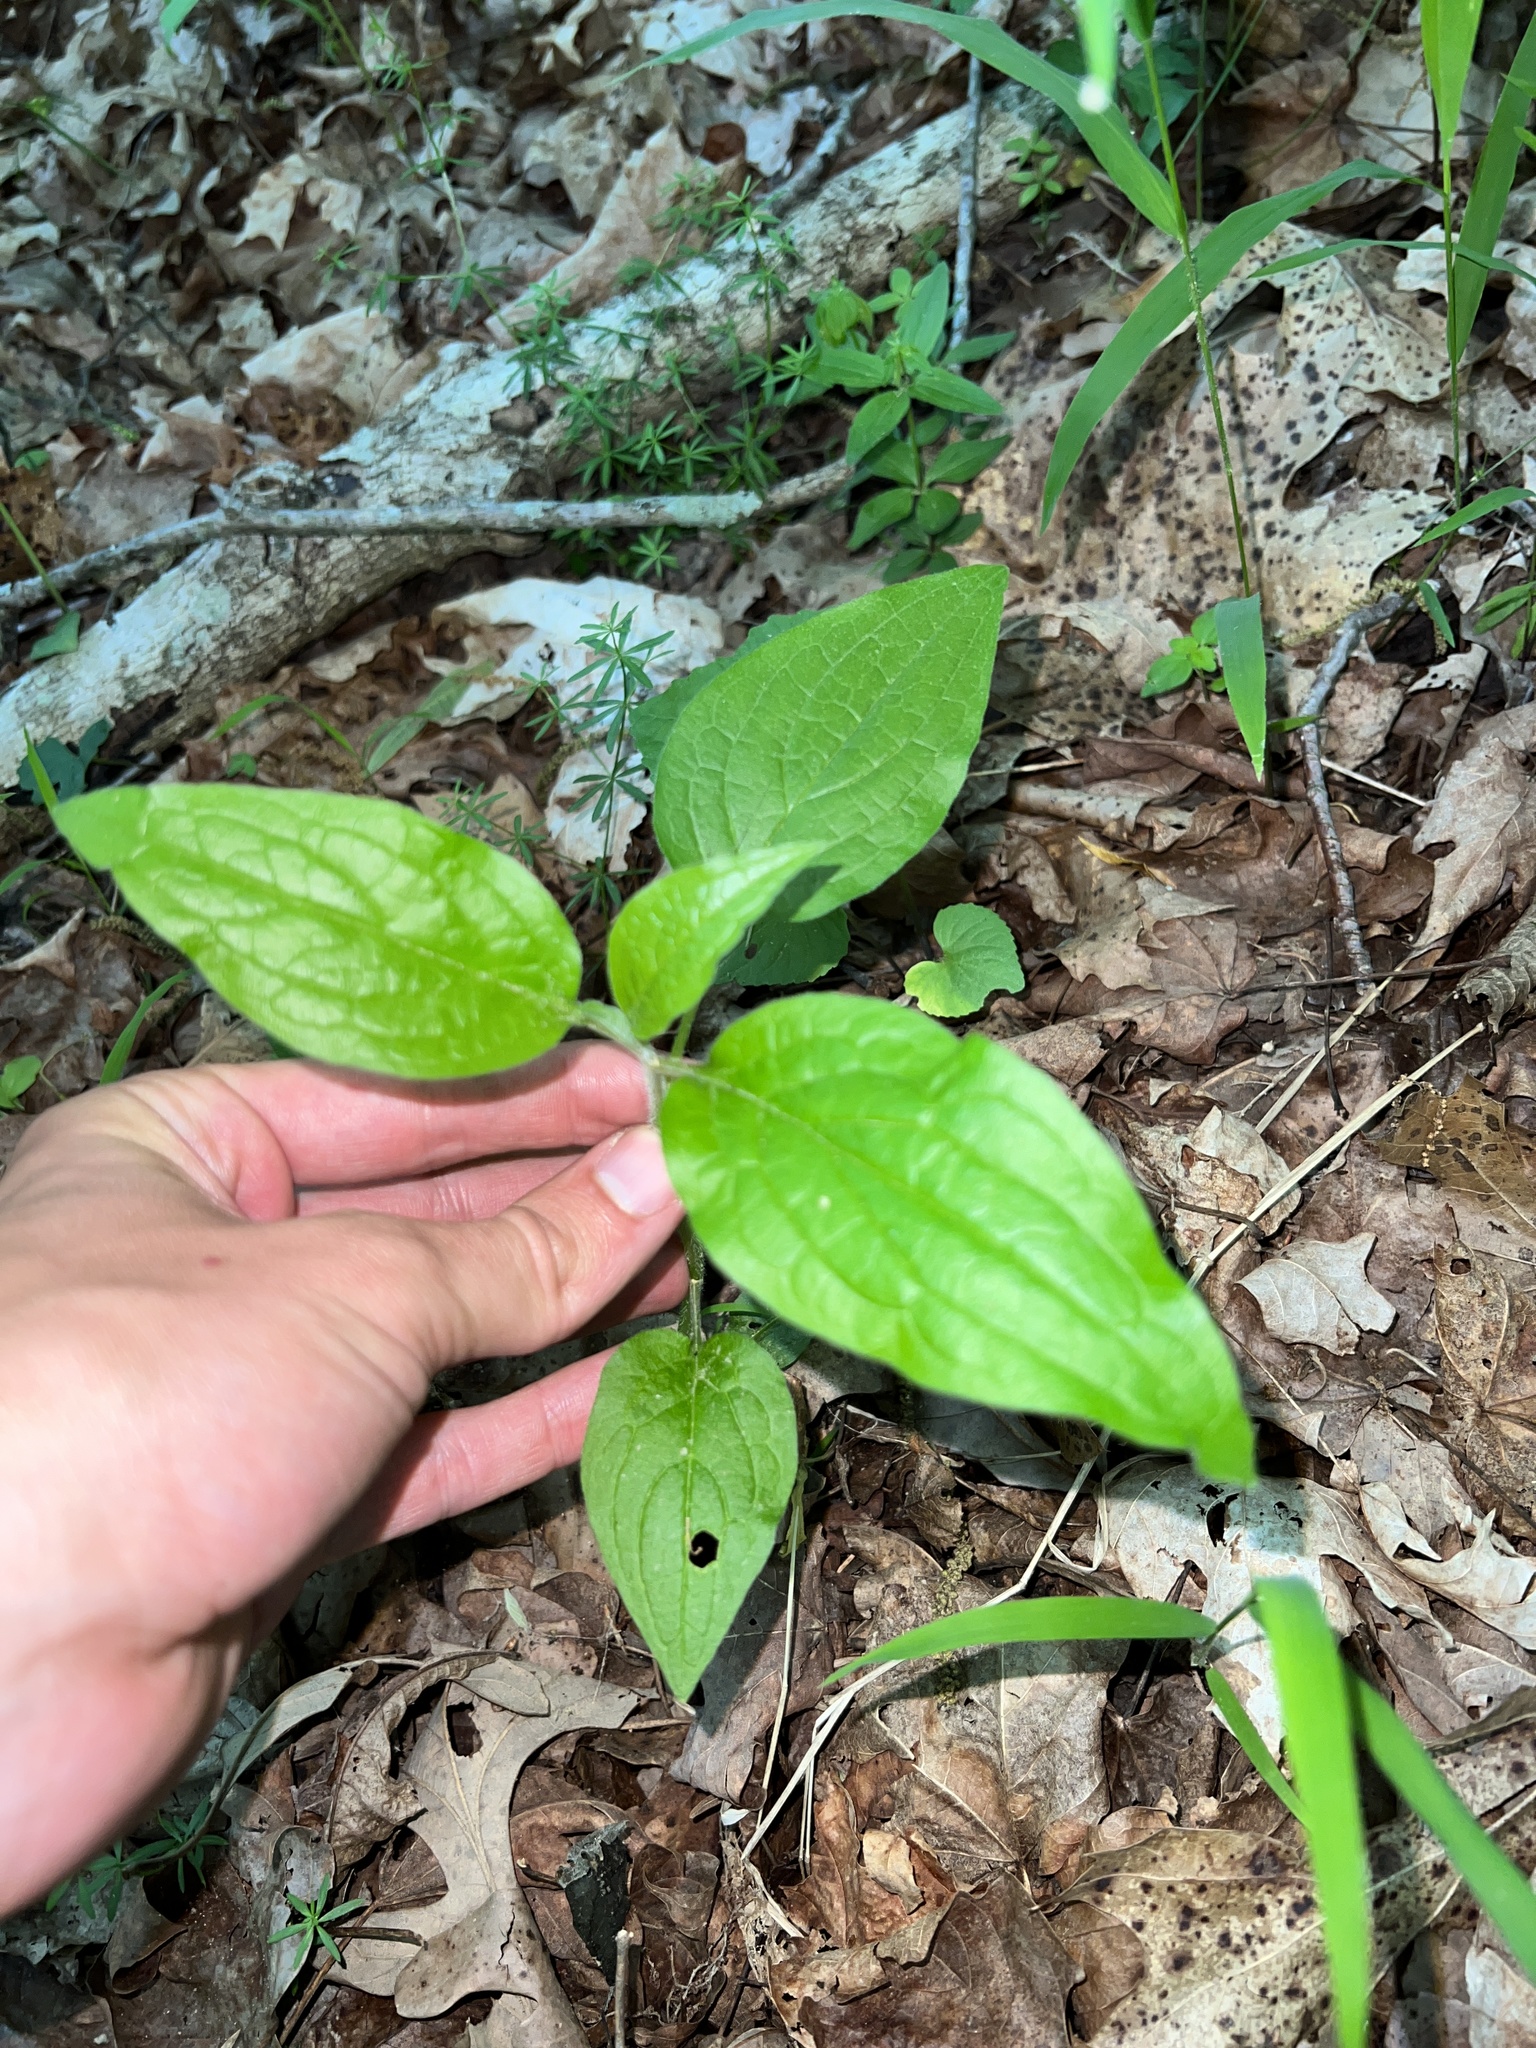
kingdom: Plantae
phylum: Tracheophyta
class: Magnoliopsida
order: Boraginales
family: Boraginaceae
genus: Hackelia
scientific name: Hackelia virginiana
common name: Beggar's-lice
